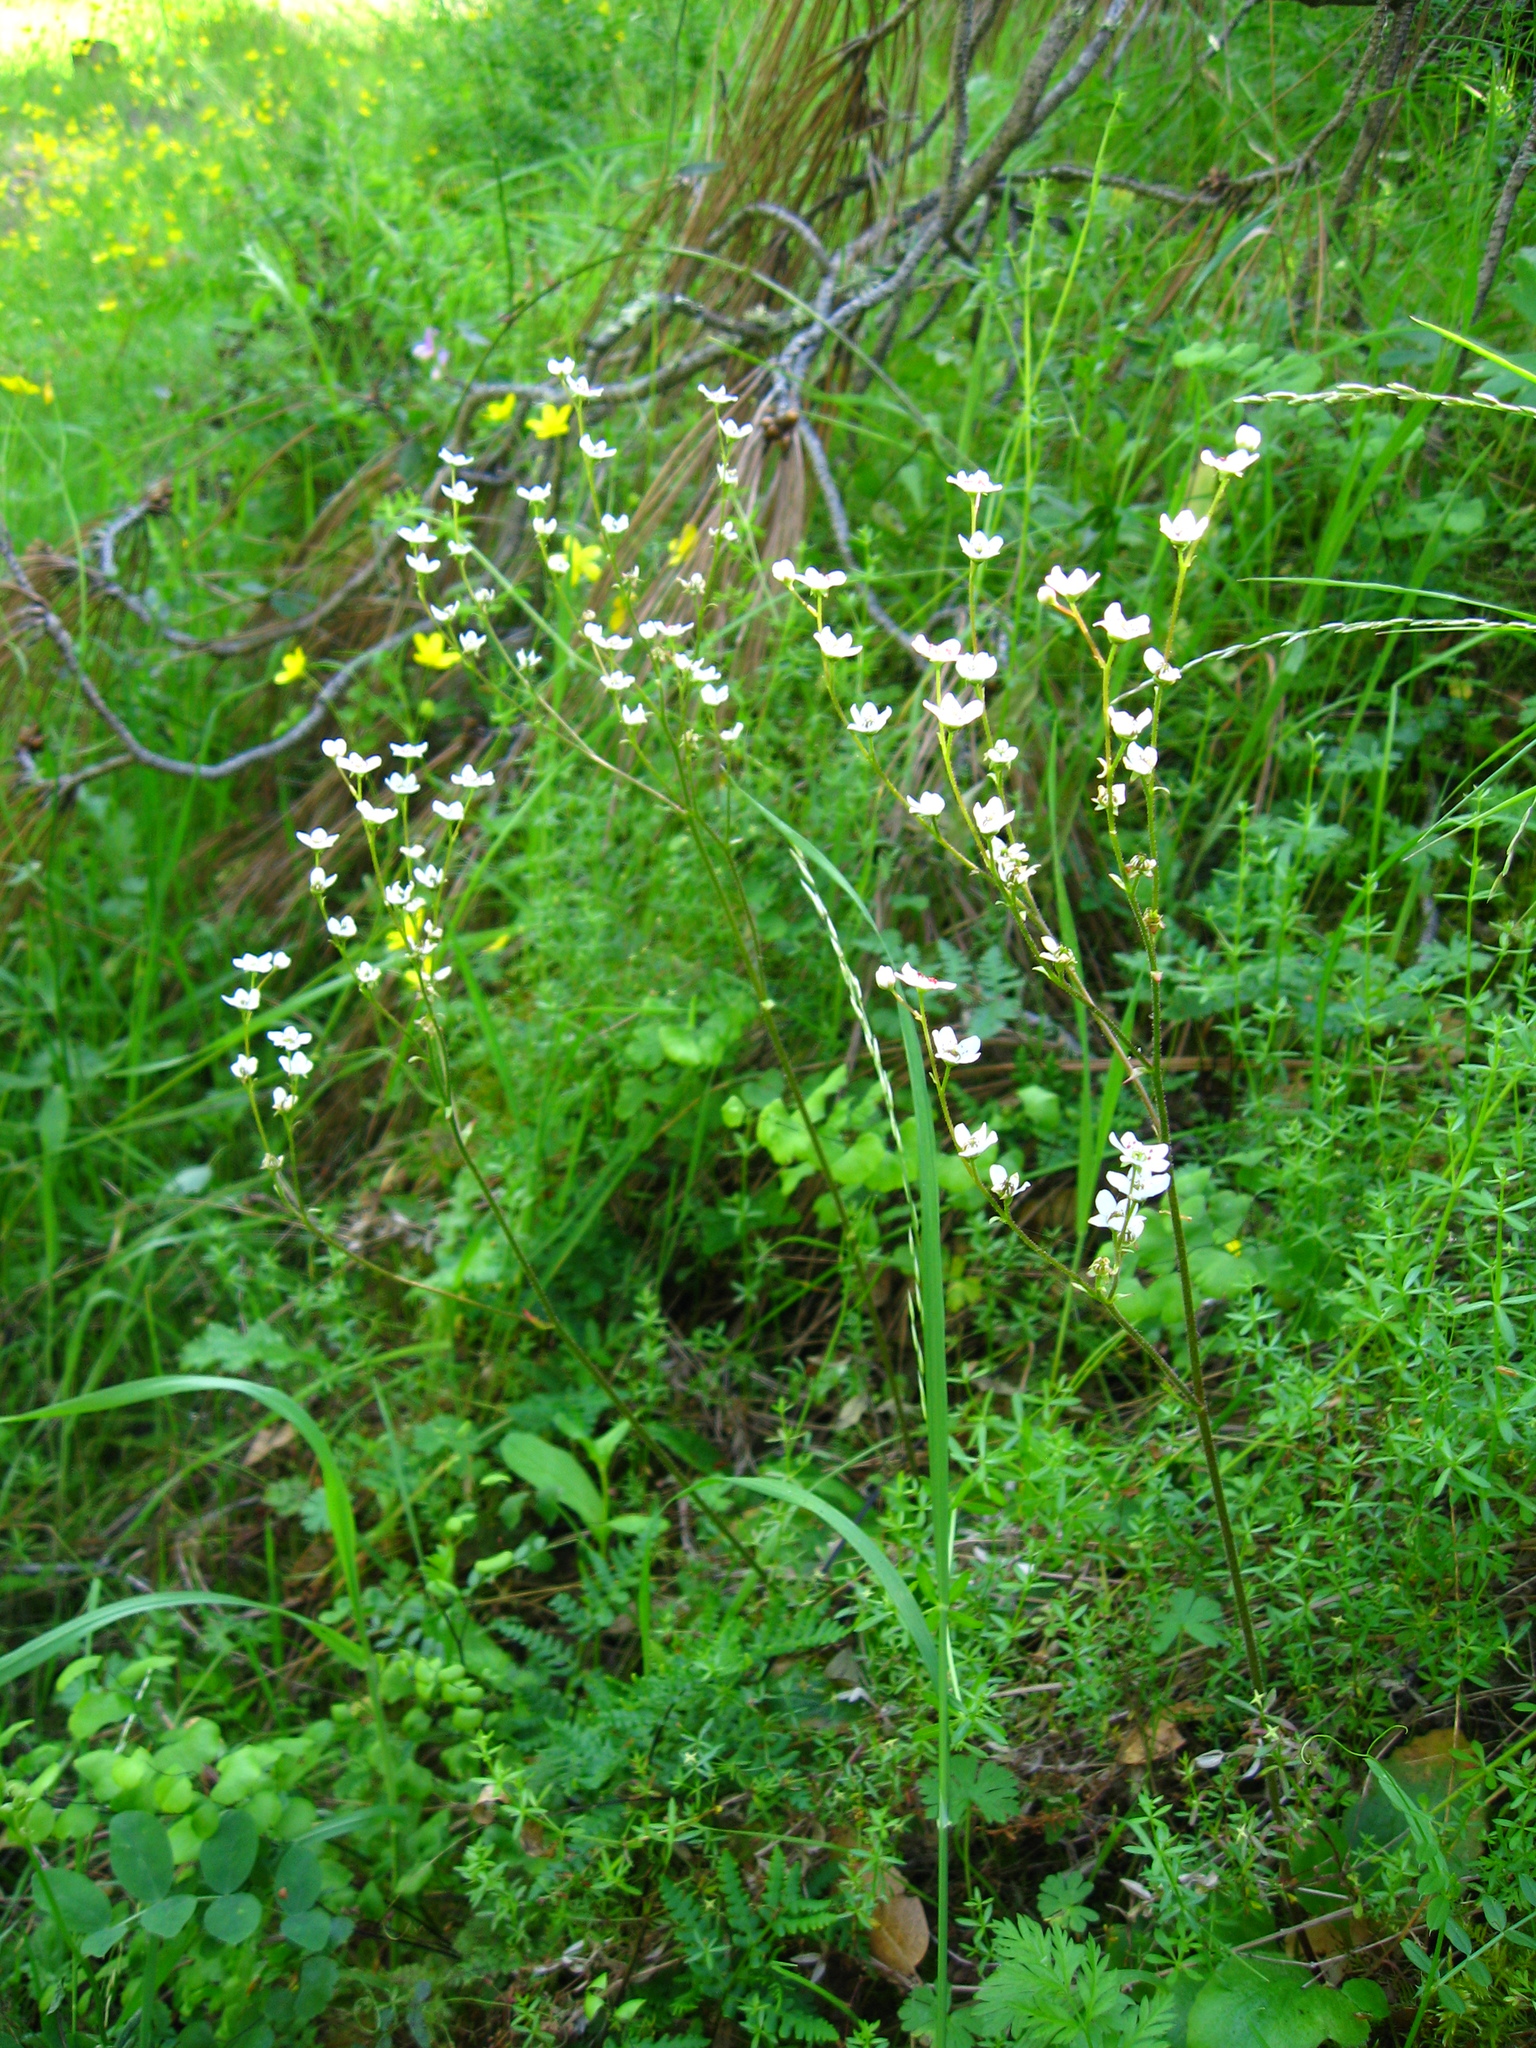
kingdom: Plantae
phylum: Tracheophyta
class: Magnoliopsida
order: Saxifragales
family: Saxifragaceae
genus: Micranthes
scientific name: Micranthes californica
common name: California saxifrage
